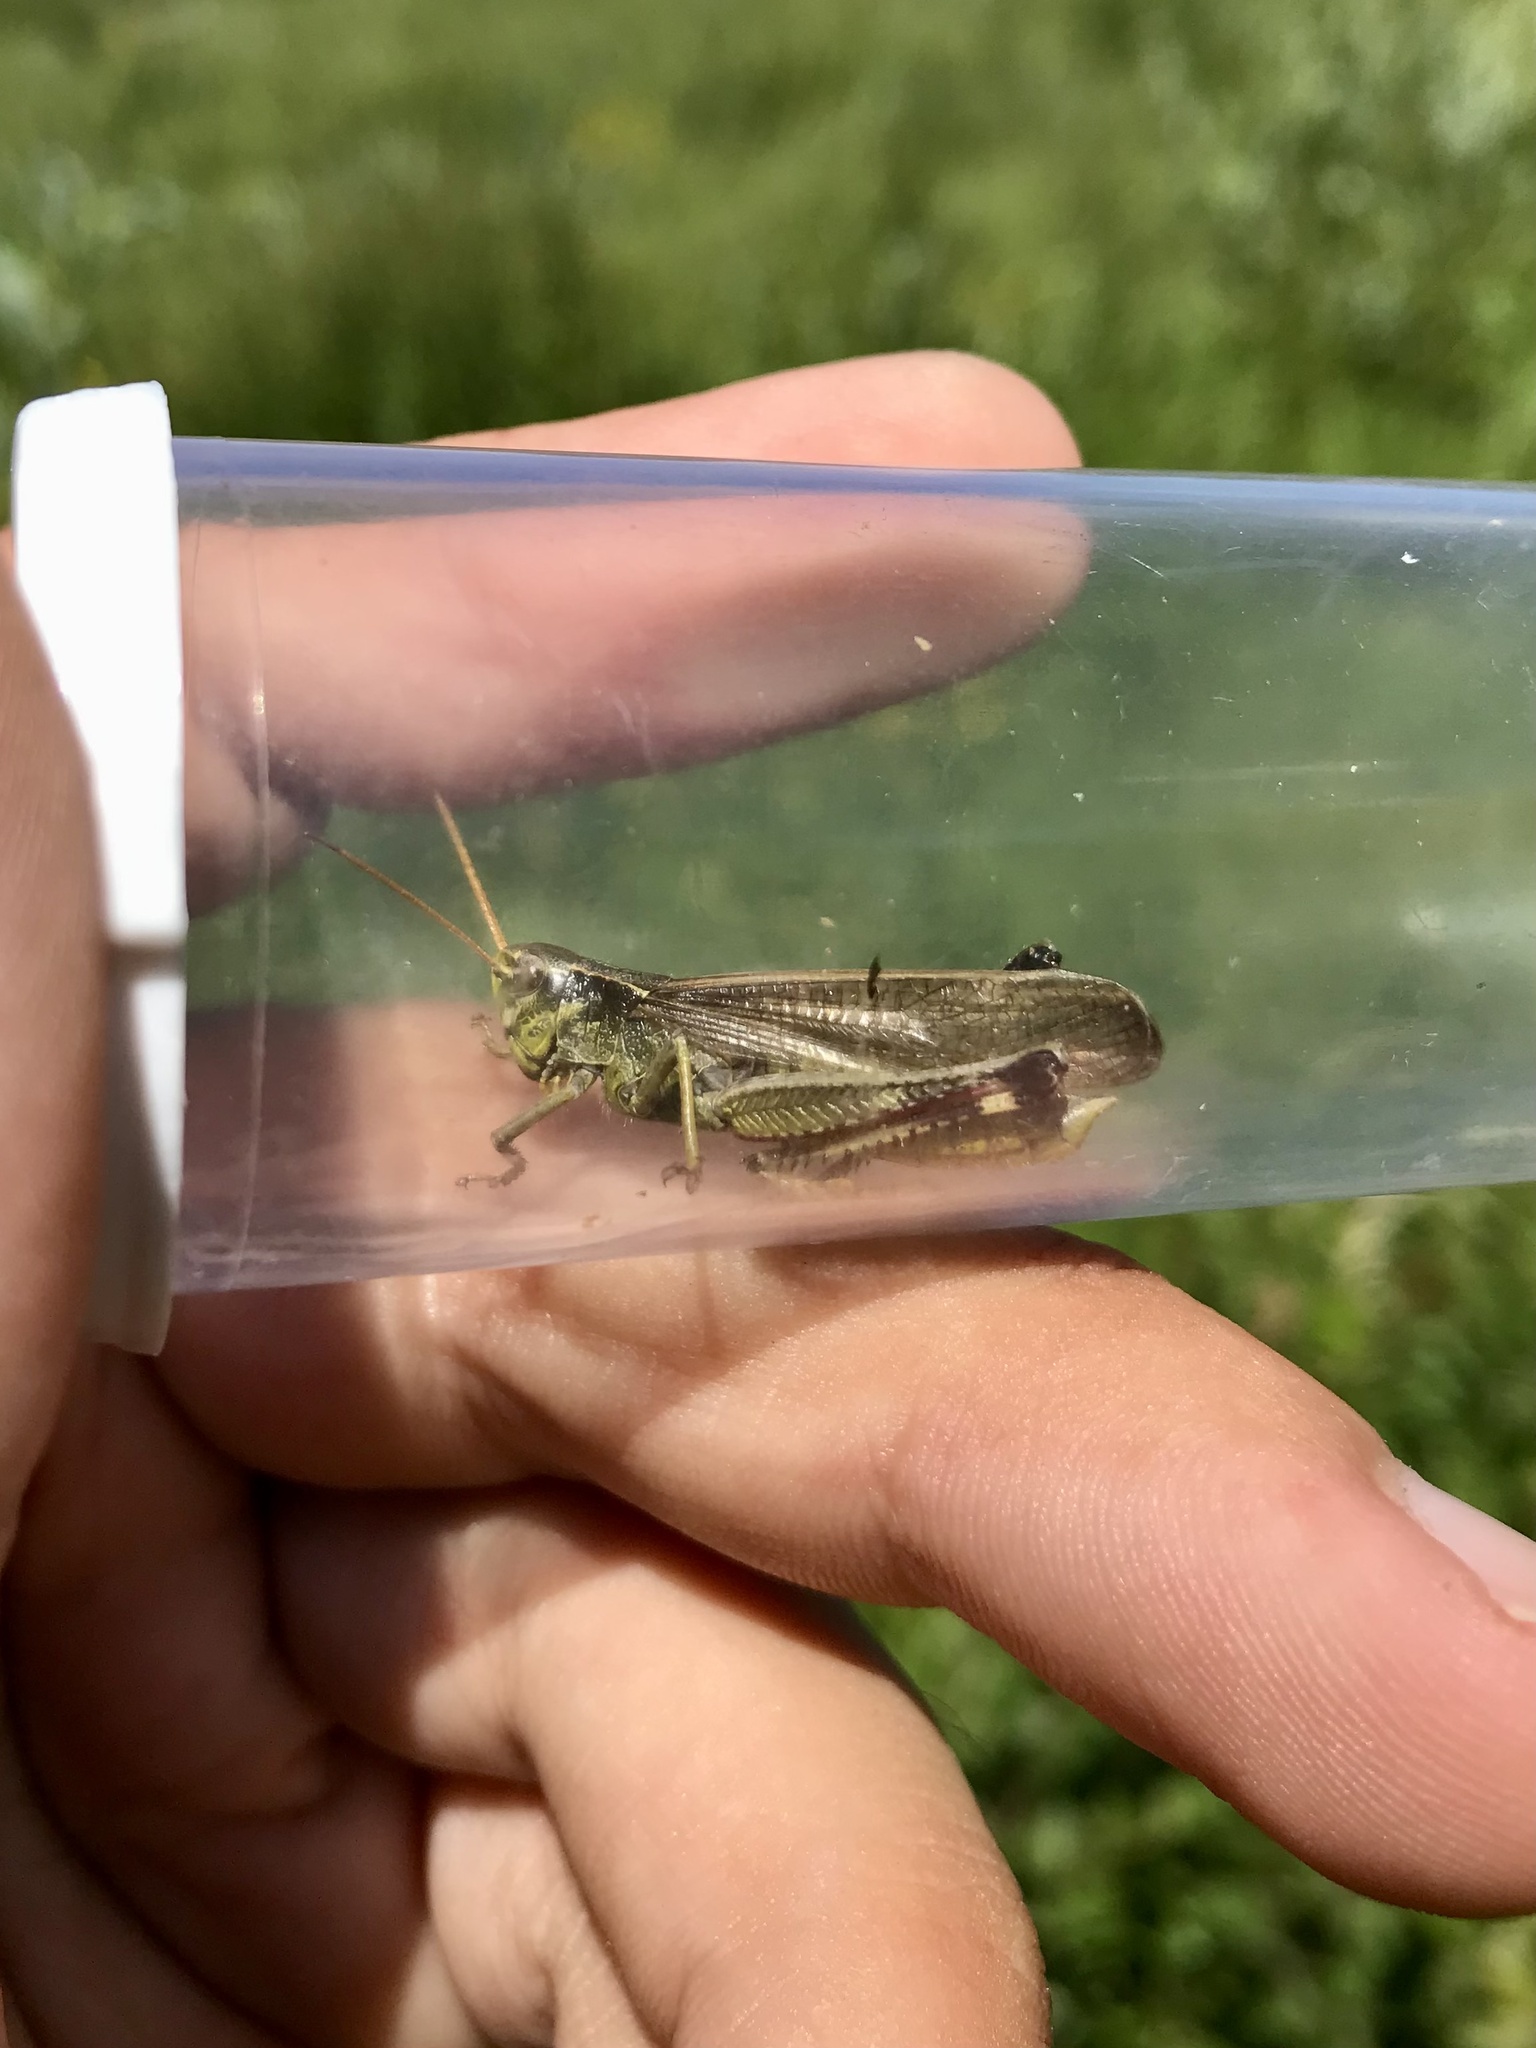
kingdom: Animalia
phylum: Arthropoda
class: Insecta
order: Orthoptera
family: Acrididae
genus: Stethophyma
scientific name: Stethophyma gracile
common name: Graceful sedge grasshopper
